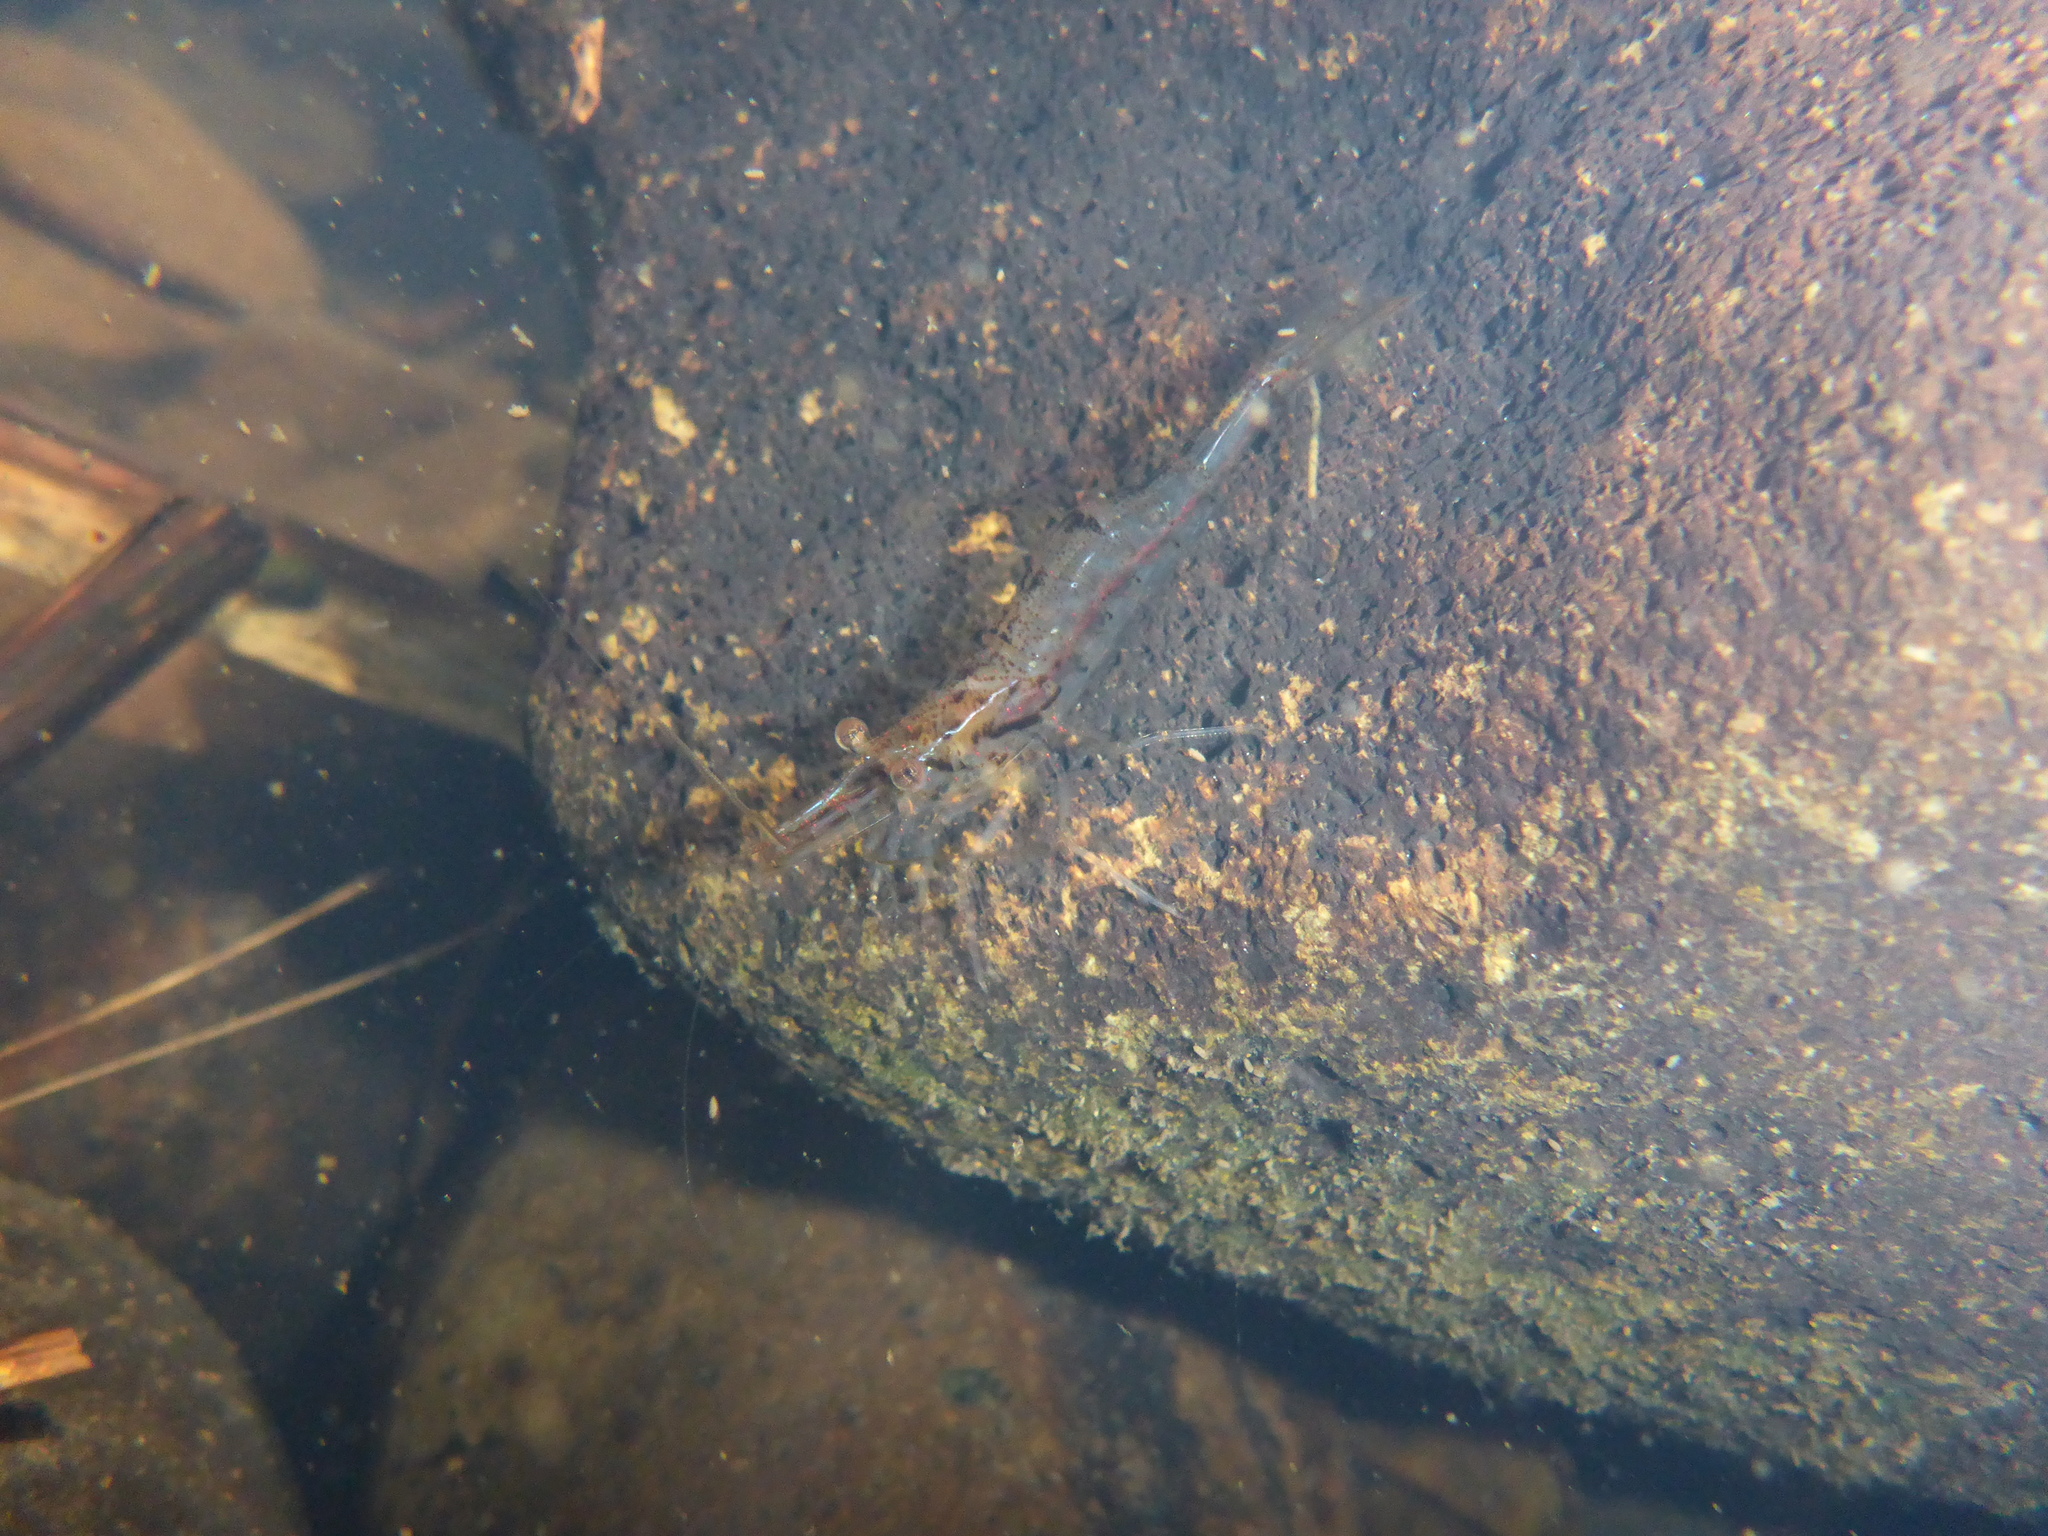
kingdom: Animalia
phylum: Arthropoda
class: Malacostraca
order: Decapoda
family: Atyidae
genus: Paratya
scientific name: Paratya curvirostris
